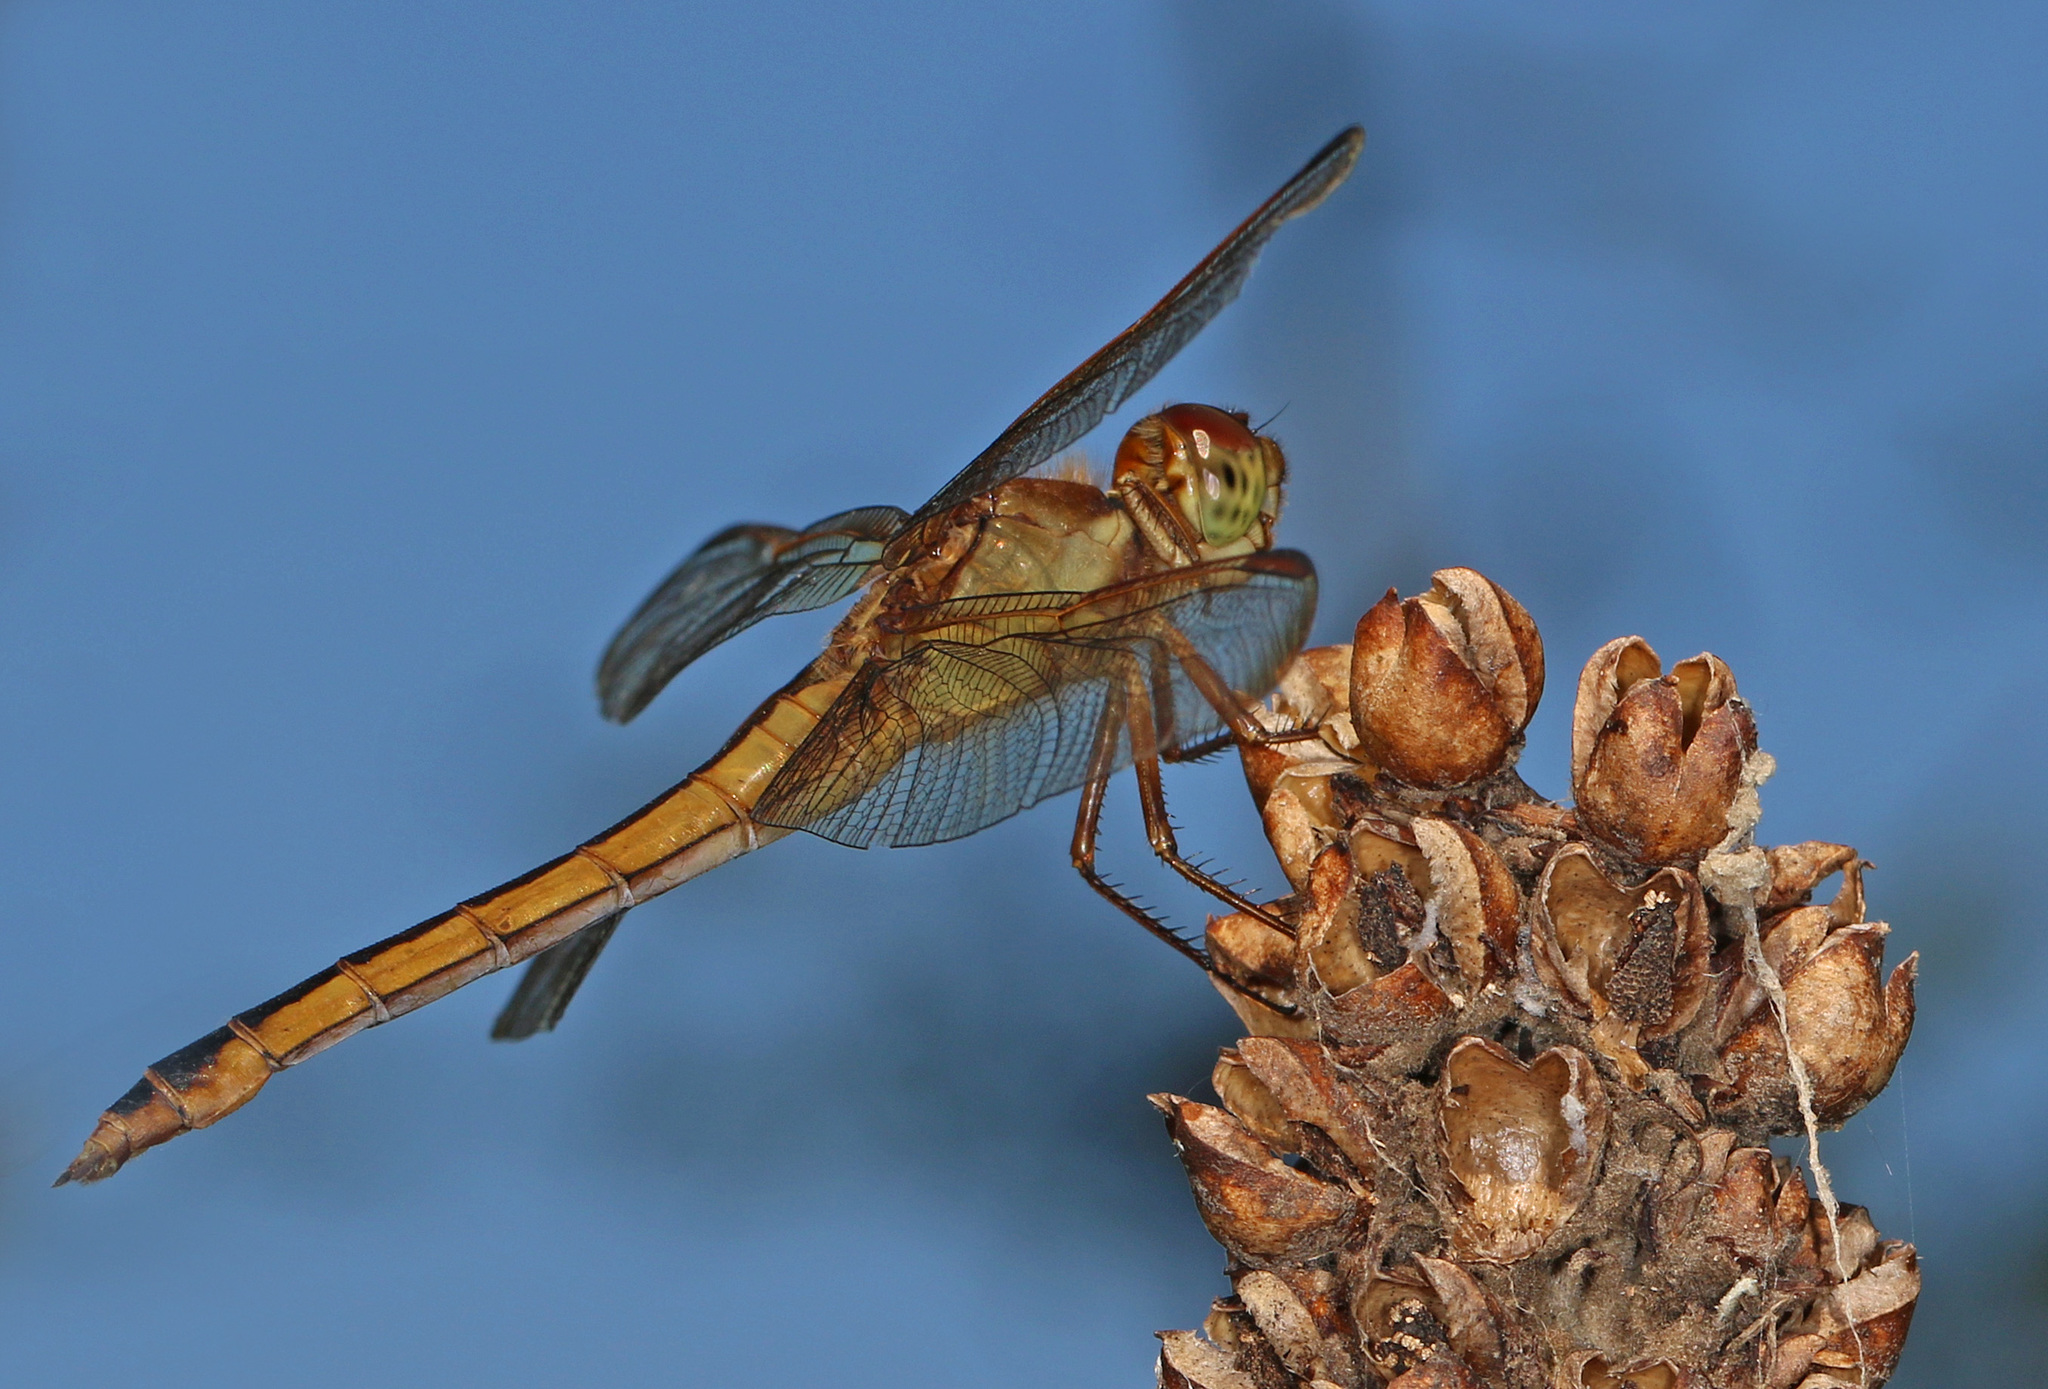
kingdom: Animalia
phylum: Arthropoda
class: Insecta
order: Odonata
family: Libellulidae
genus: Libellula
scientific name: Libellula needhami
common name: Needham's skimmer
